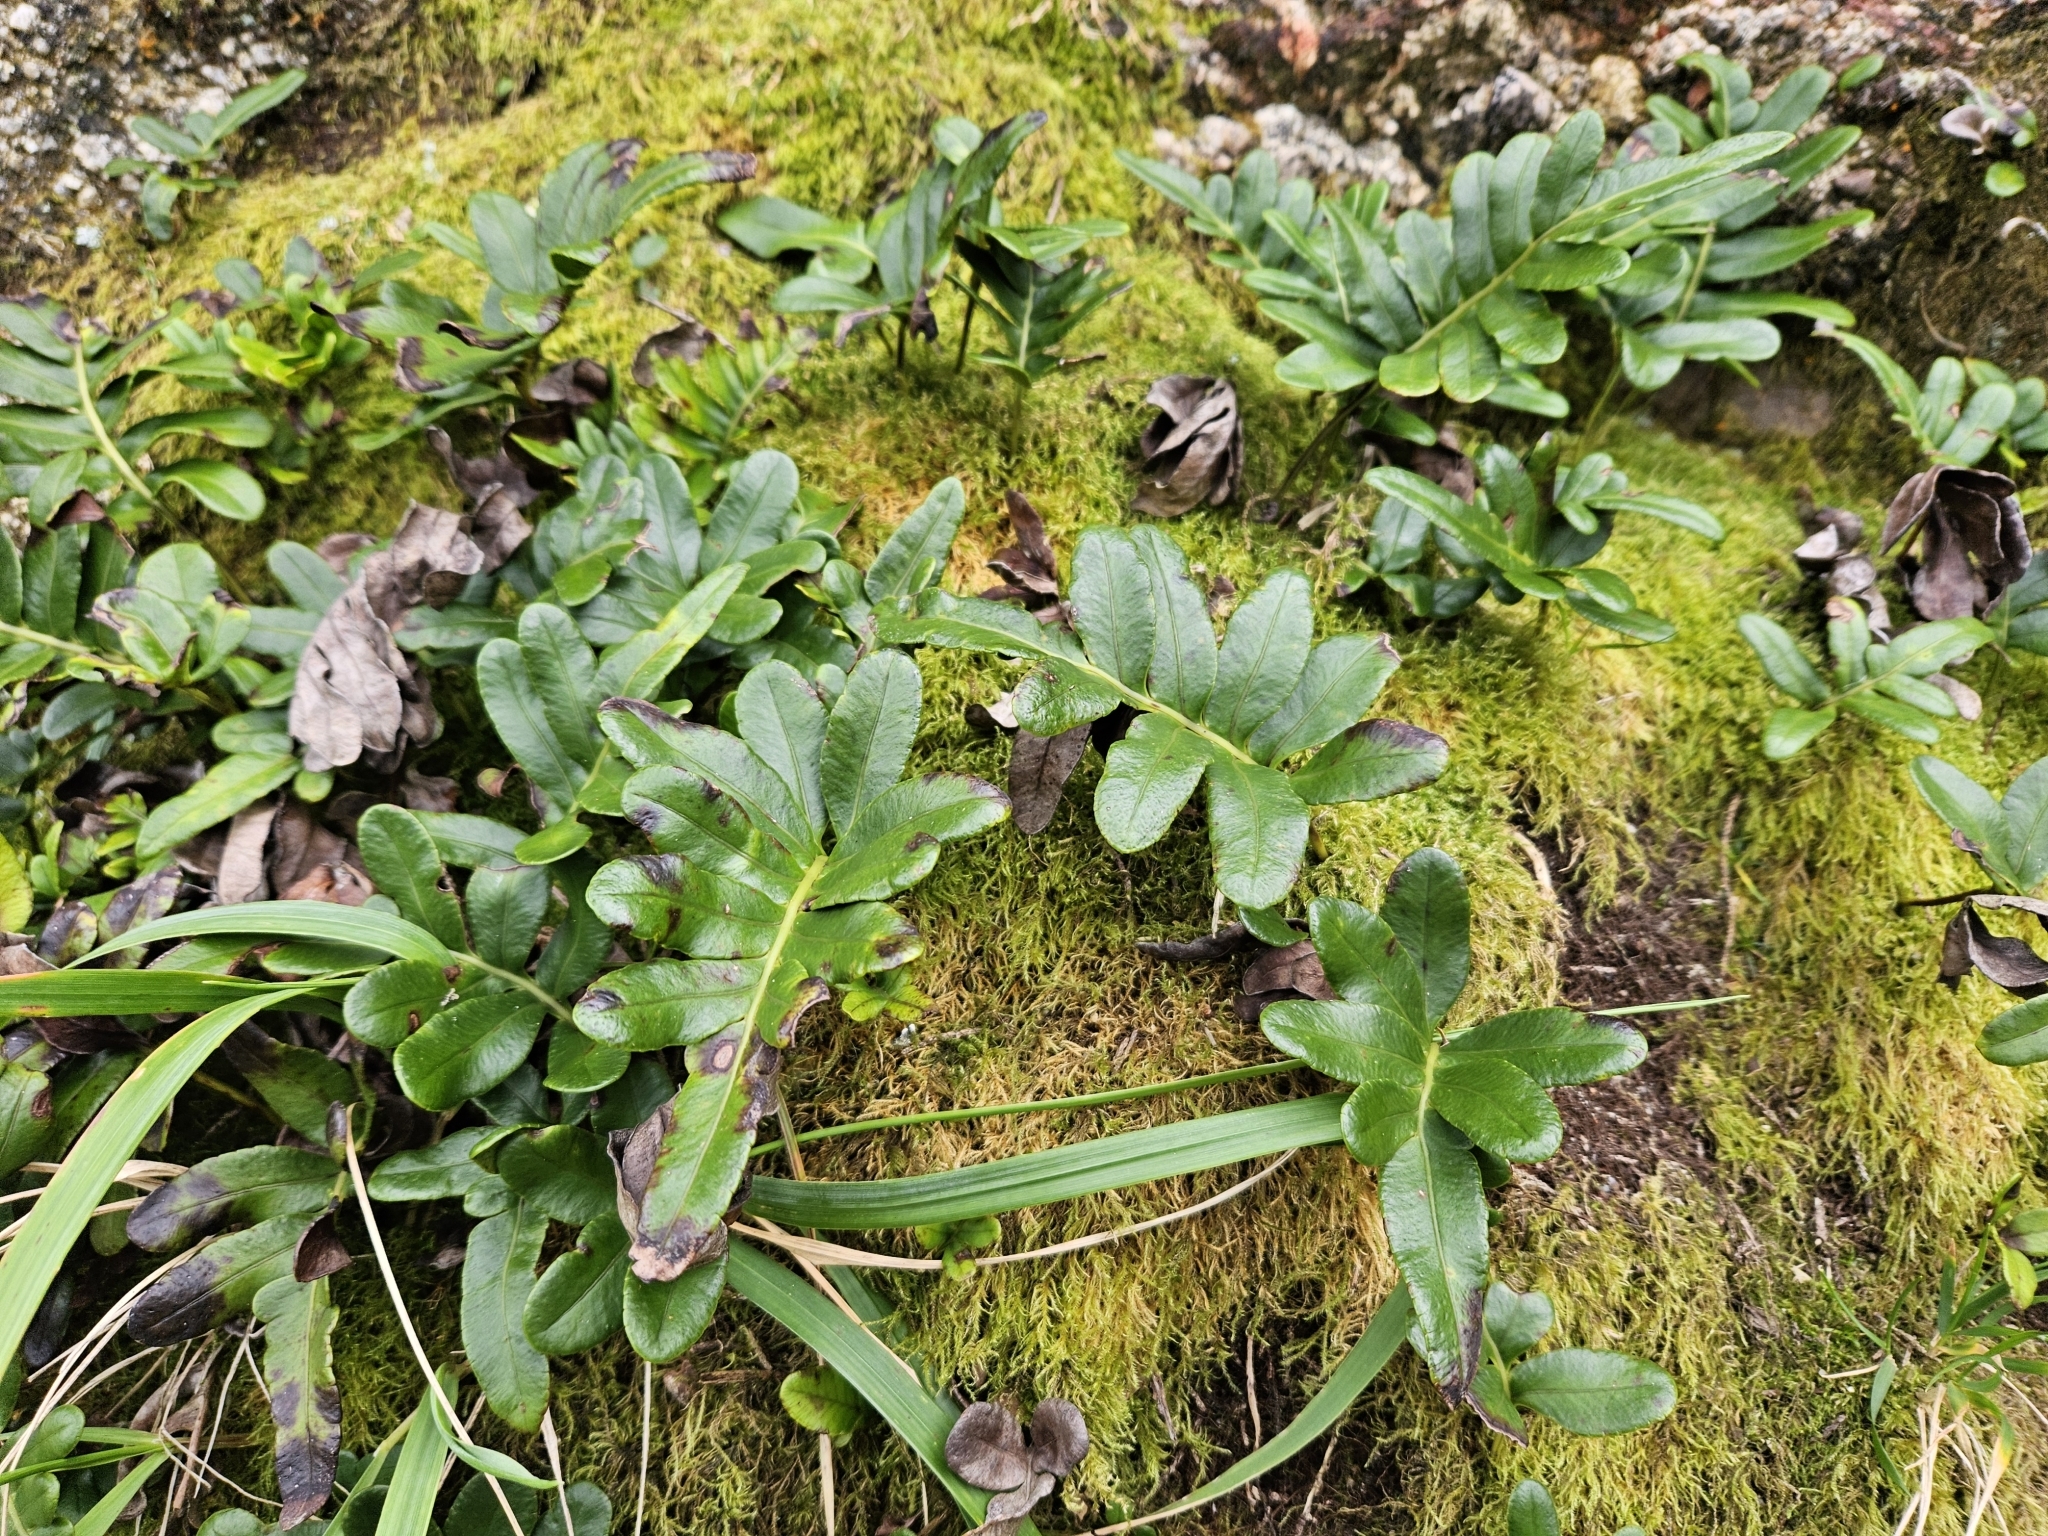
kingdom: Plantae
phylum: Tracheophyta
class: Polypodiopsida
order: Polypodiales
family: Polypodiaceae
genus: Polypodium
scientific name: Polypodium scouleri
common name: Scouler's polypody
